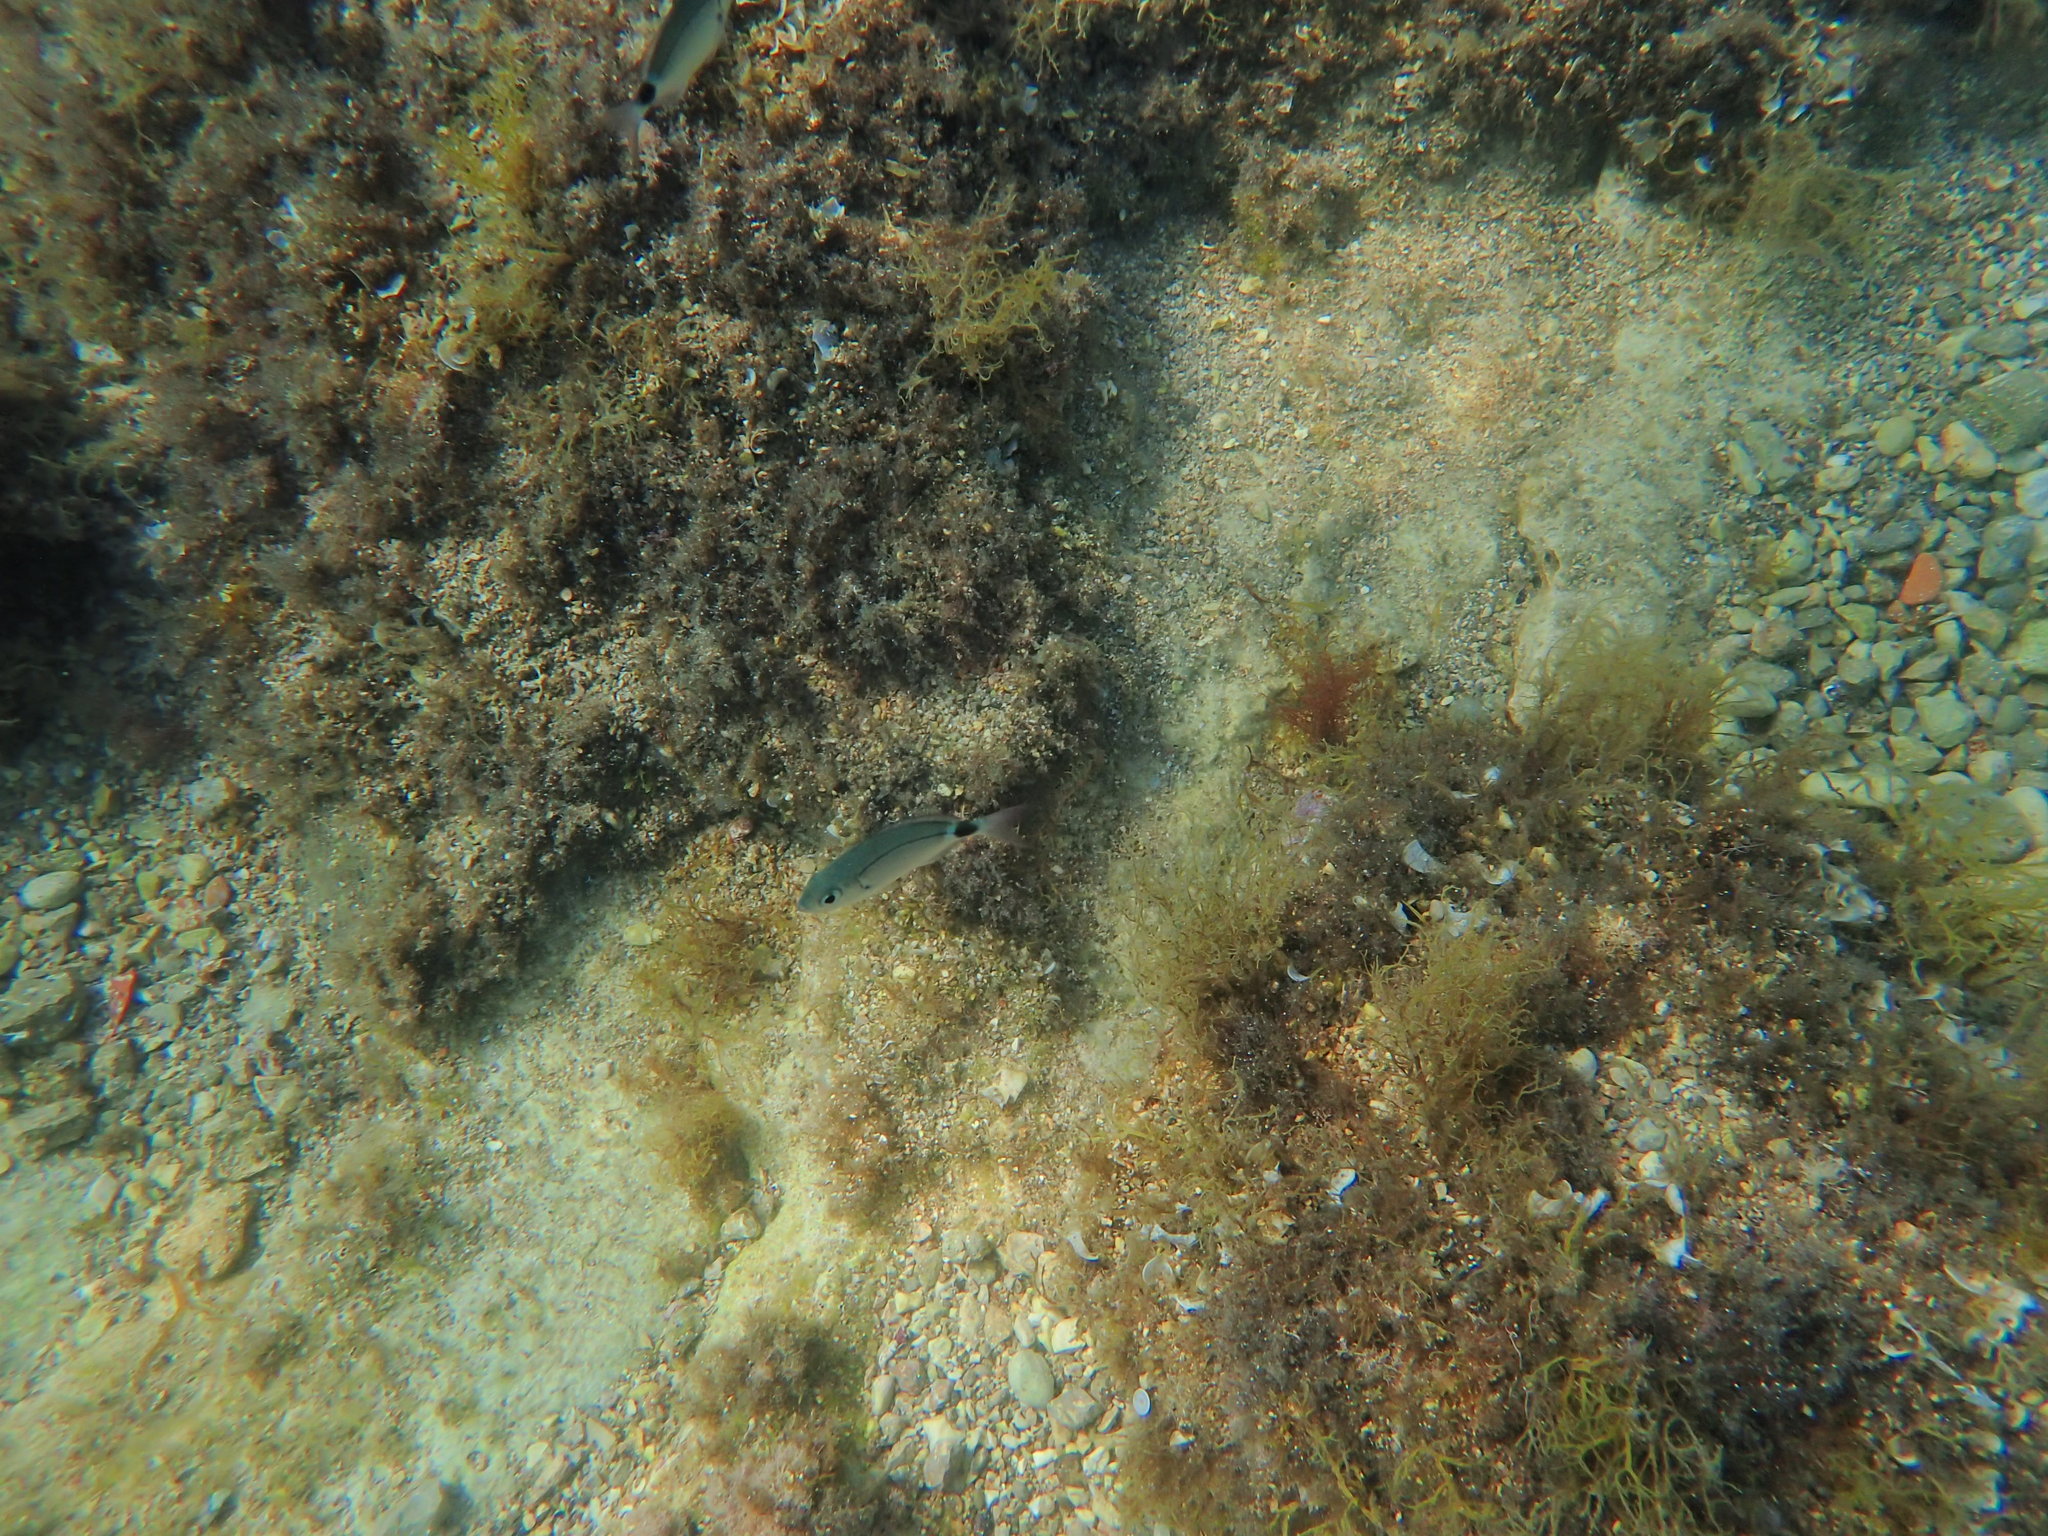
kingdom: Animalia
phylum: Chordata
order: Perciformes
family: Sparidae
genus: Oblada
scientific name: Oblada melanura
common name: Saddled seabream
